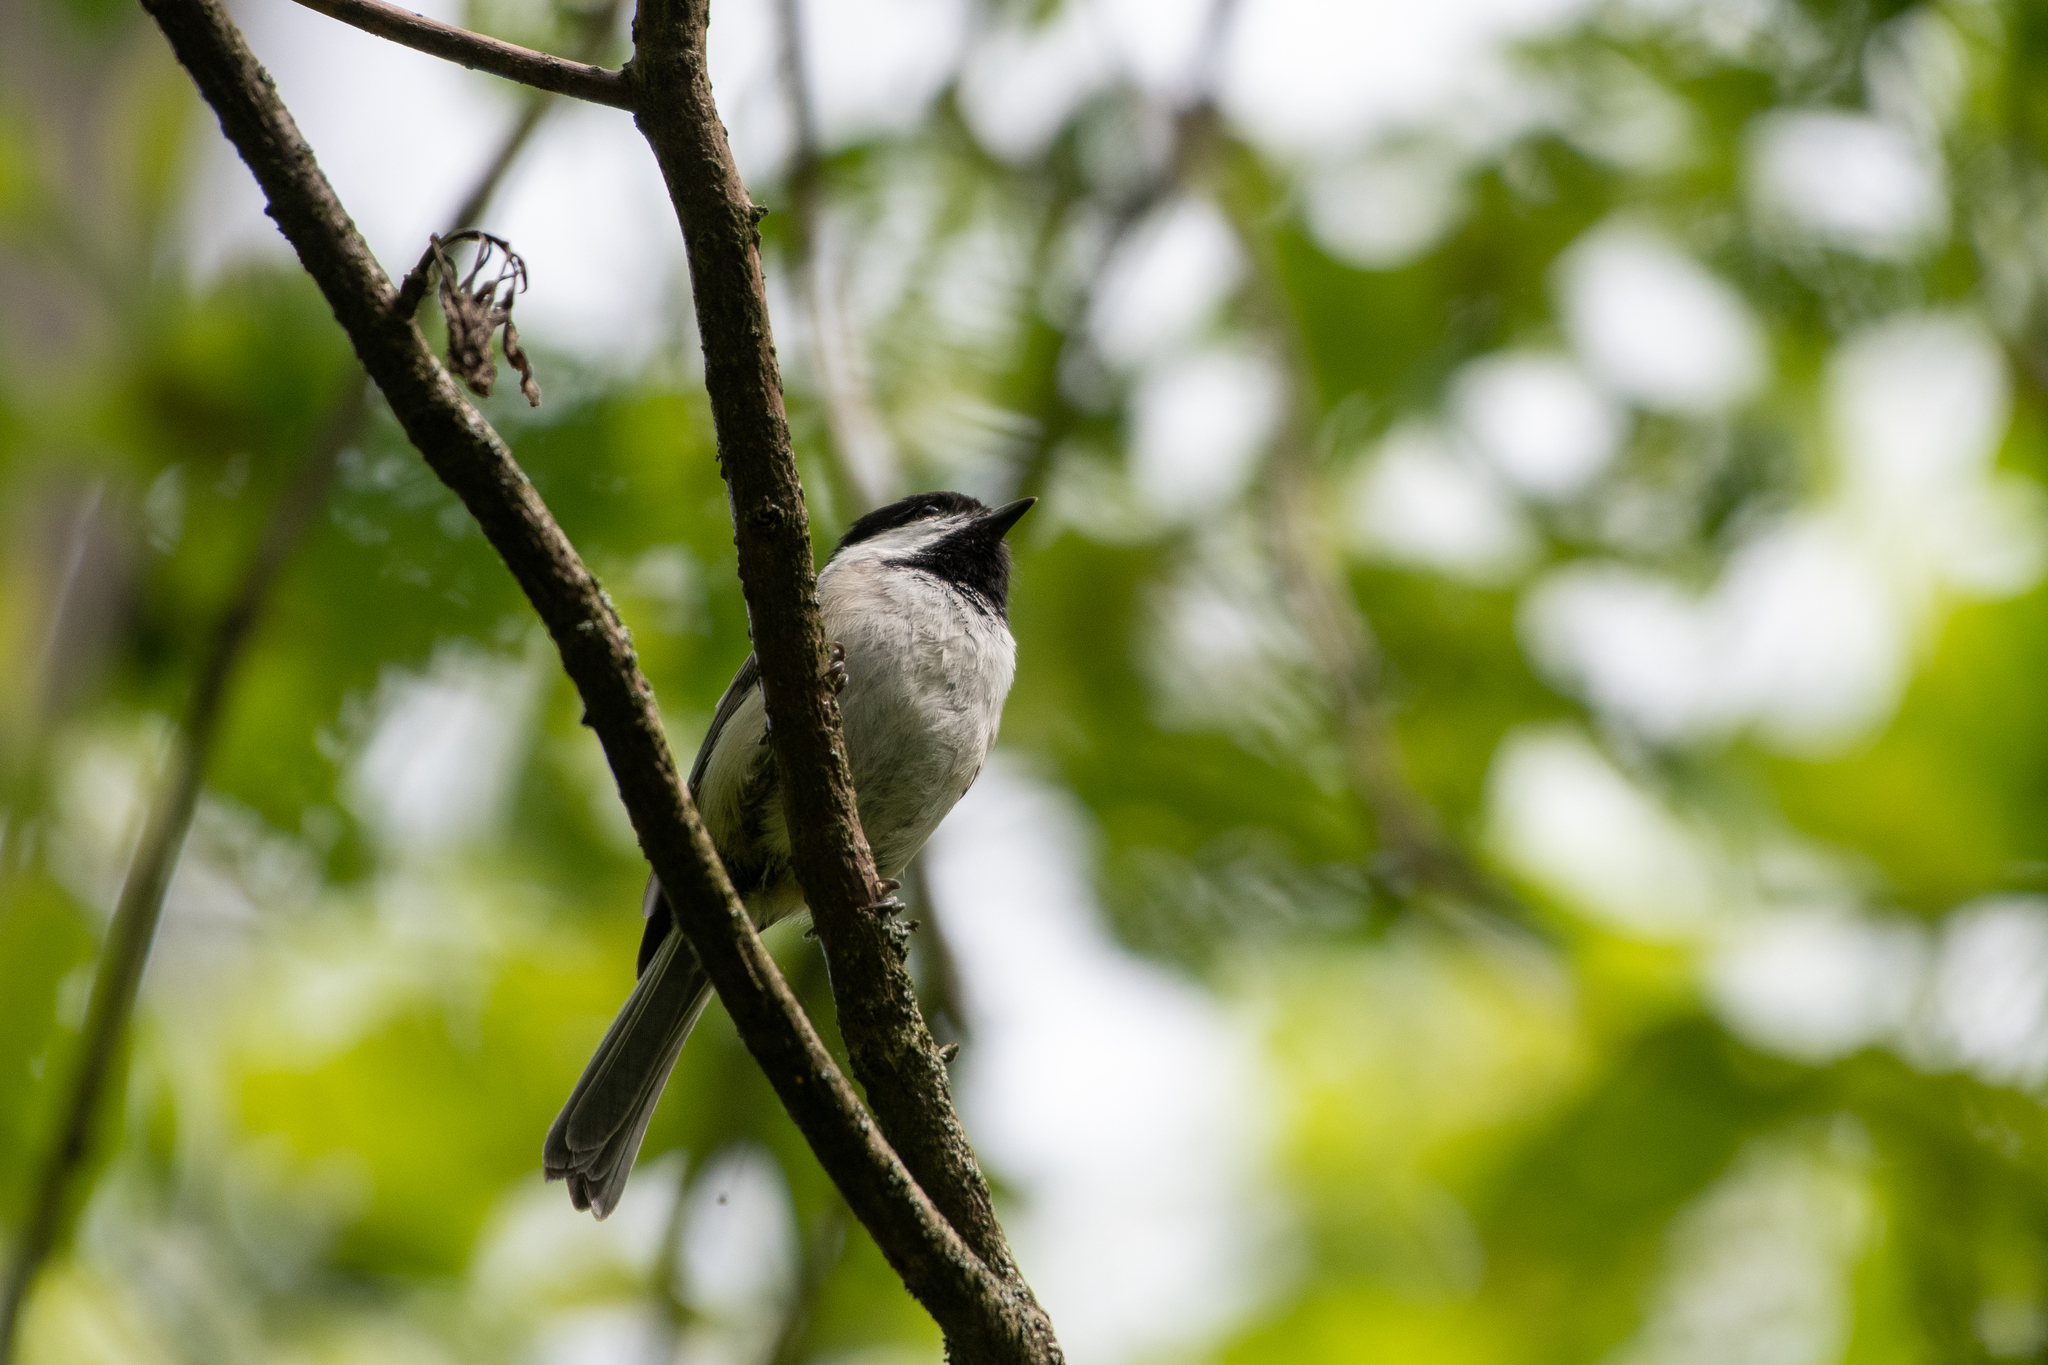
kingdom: Animalia
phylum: Chordata
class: Aves
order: Passeriformes
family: Paridae
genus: Poecile
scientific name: Poecile carolinensis
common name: Carolina chickadee
